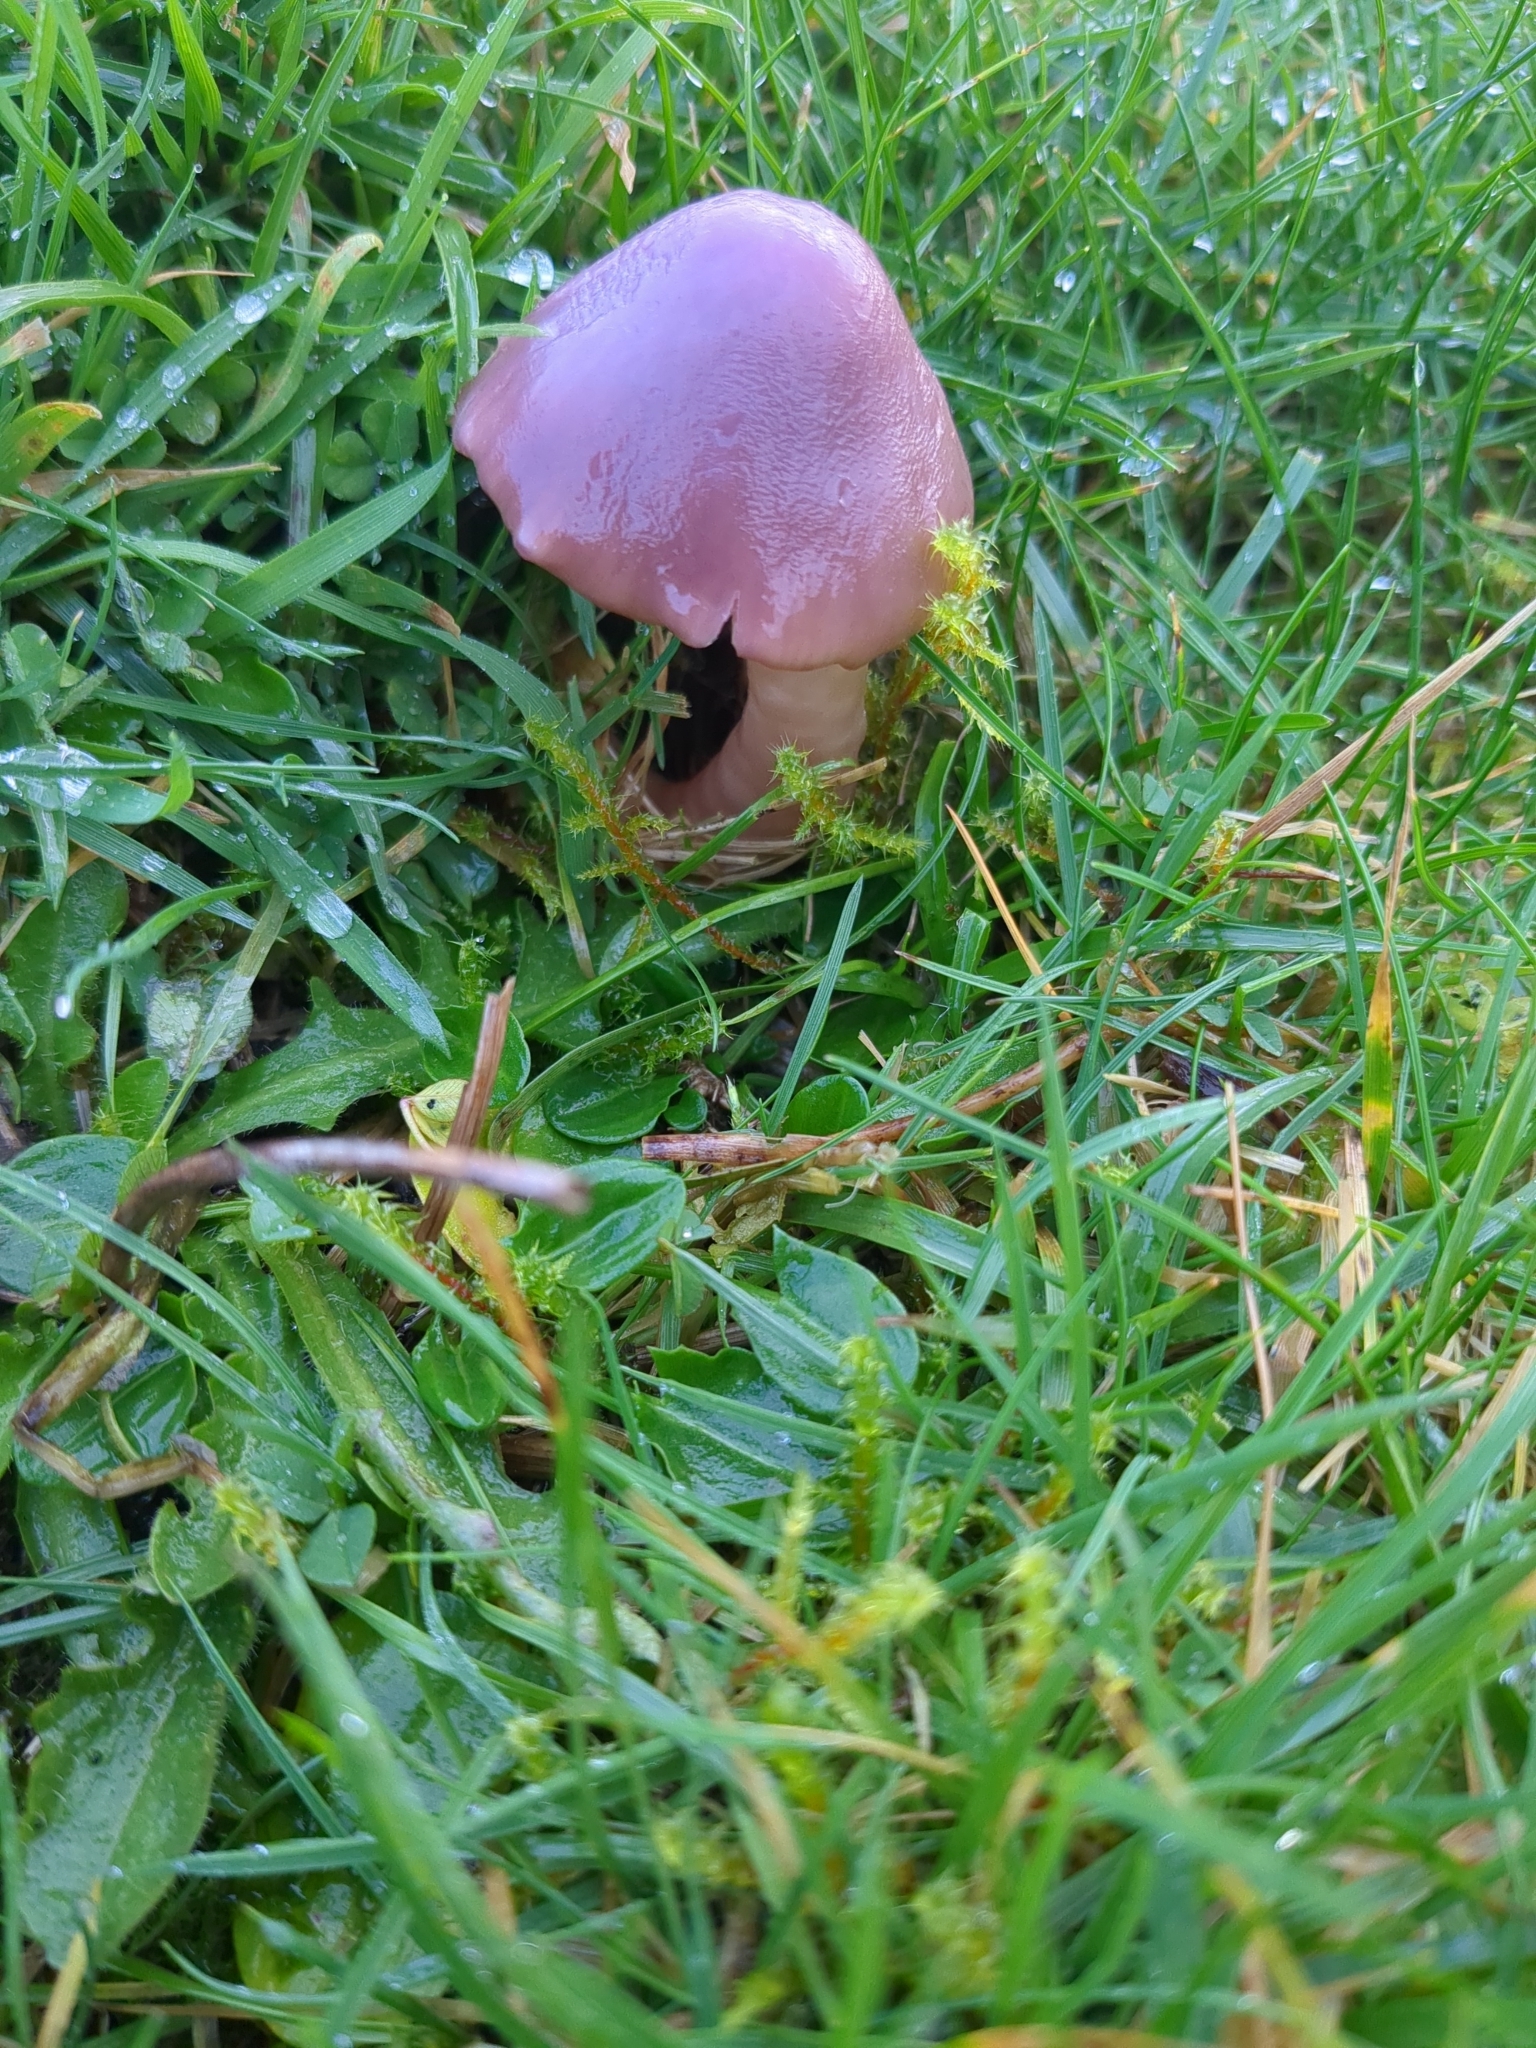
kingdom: Fungi
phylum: Basidiomycota
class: Agaricomycetes
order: Agaricales
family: Hygrophoraceae
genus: Gliophorus
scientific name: Gliophorus reginae
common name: Jubilee waxcap
